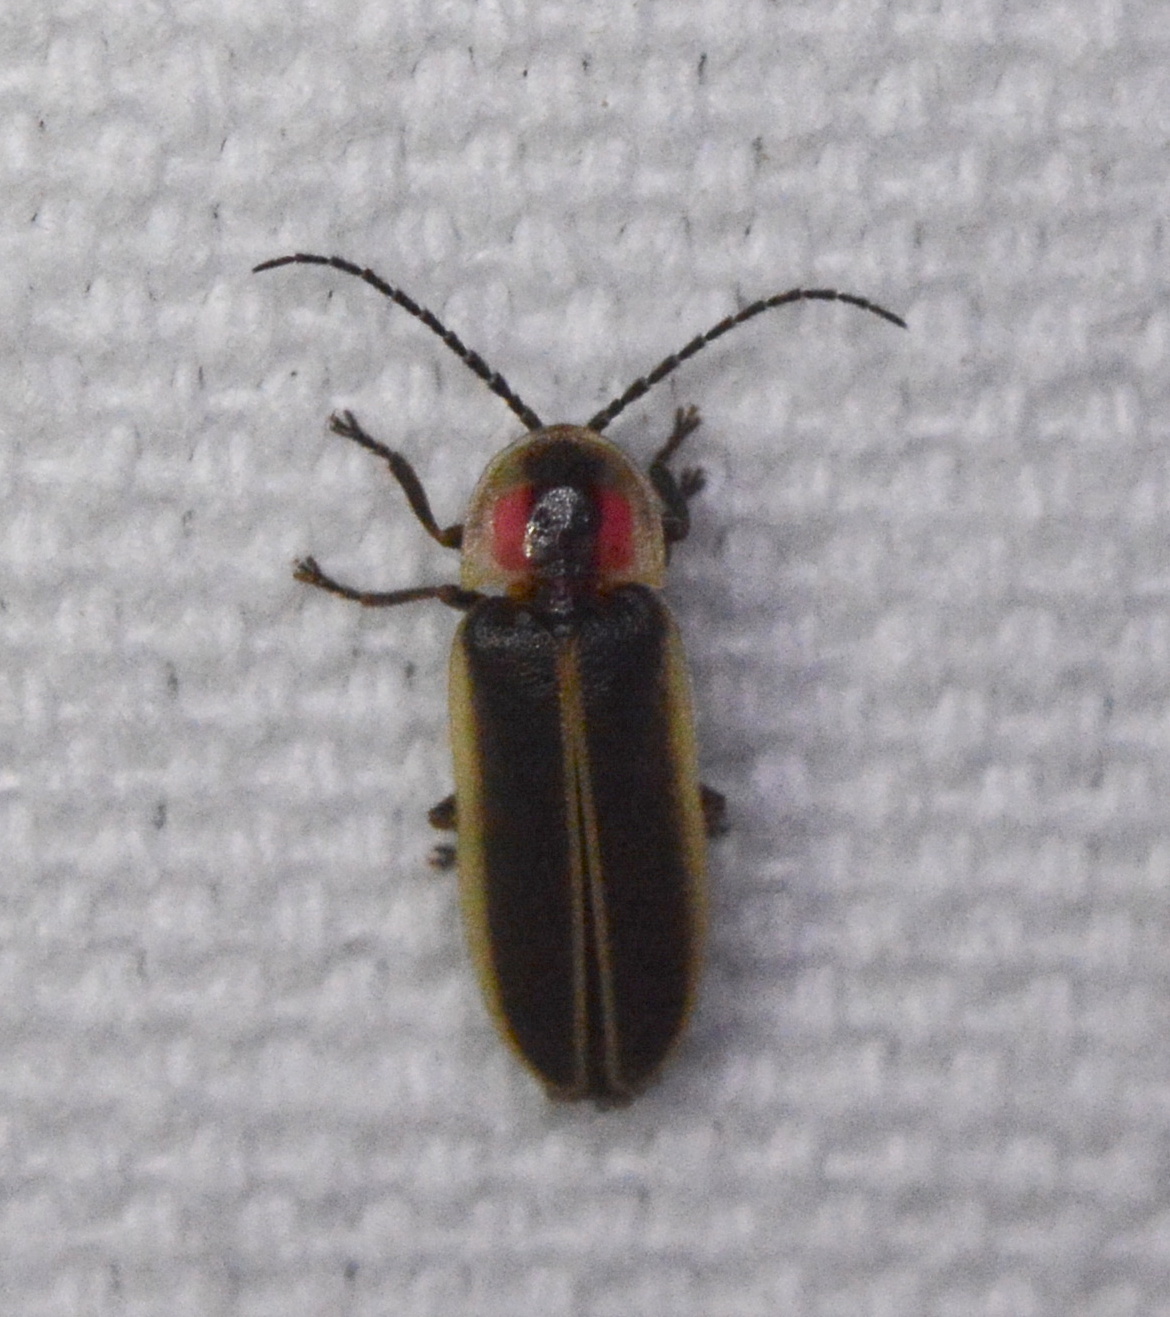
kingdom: Animalia
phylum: Arthropoda
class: Insecta
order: Coleoptera
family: Lampyridae
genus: Photinus
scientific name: Photinus pyralis
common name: Big dipper firefly
